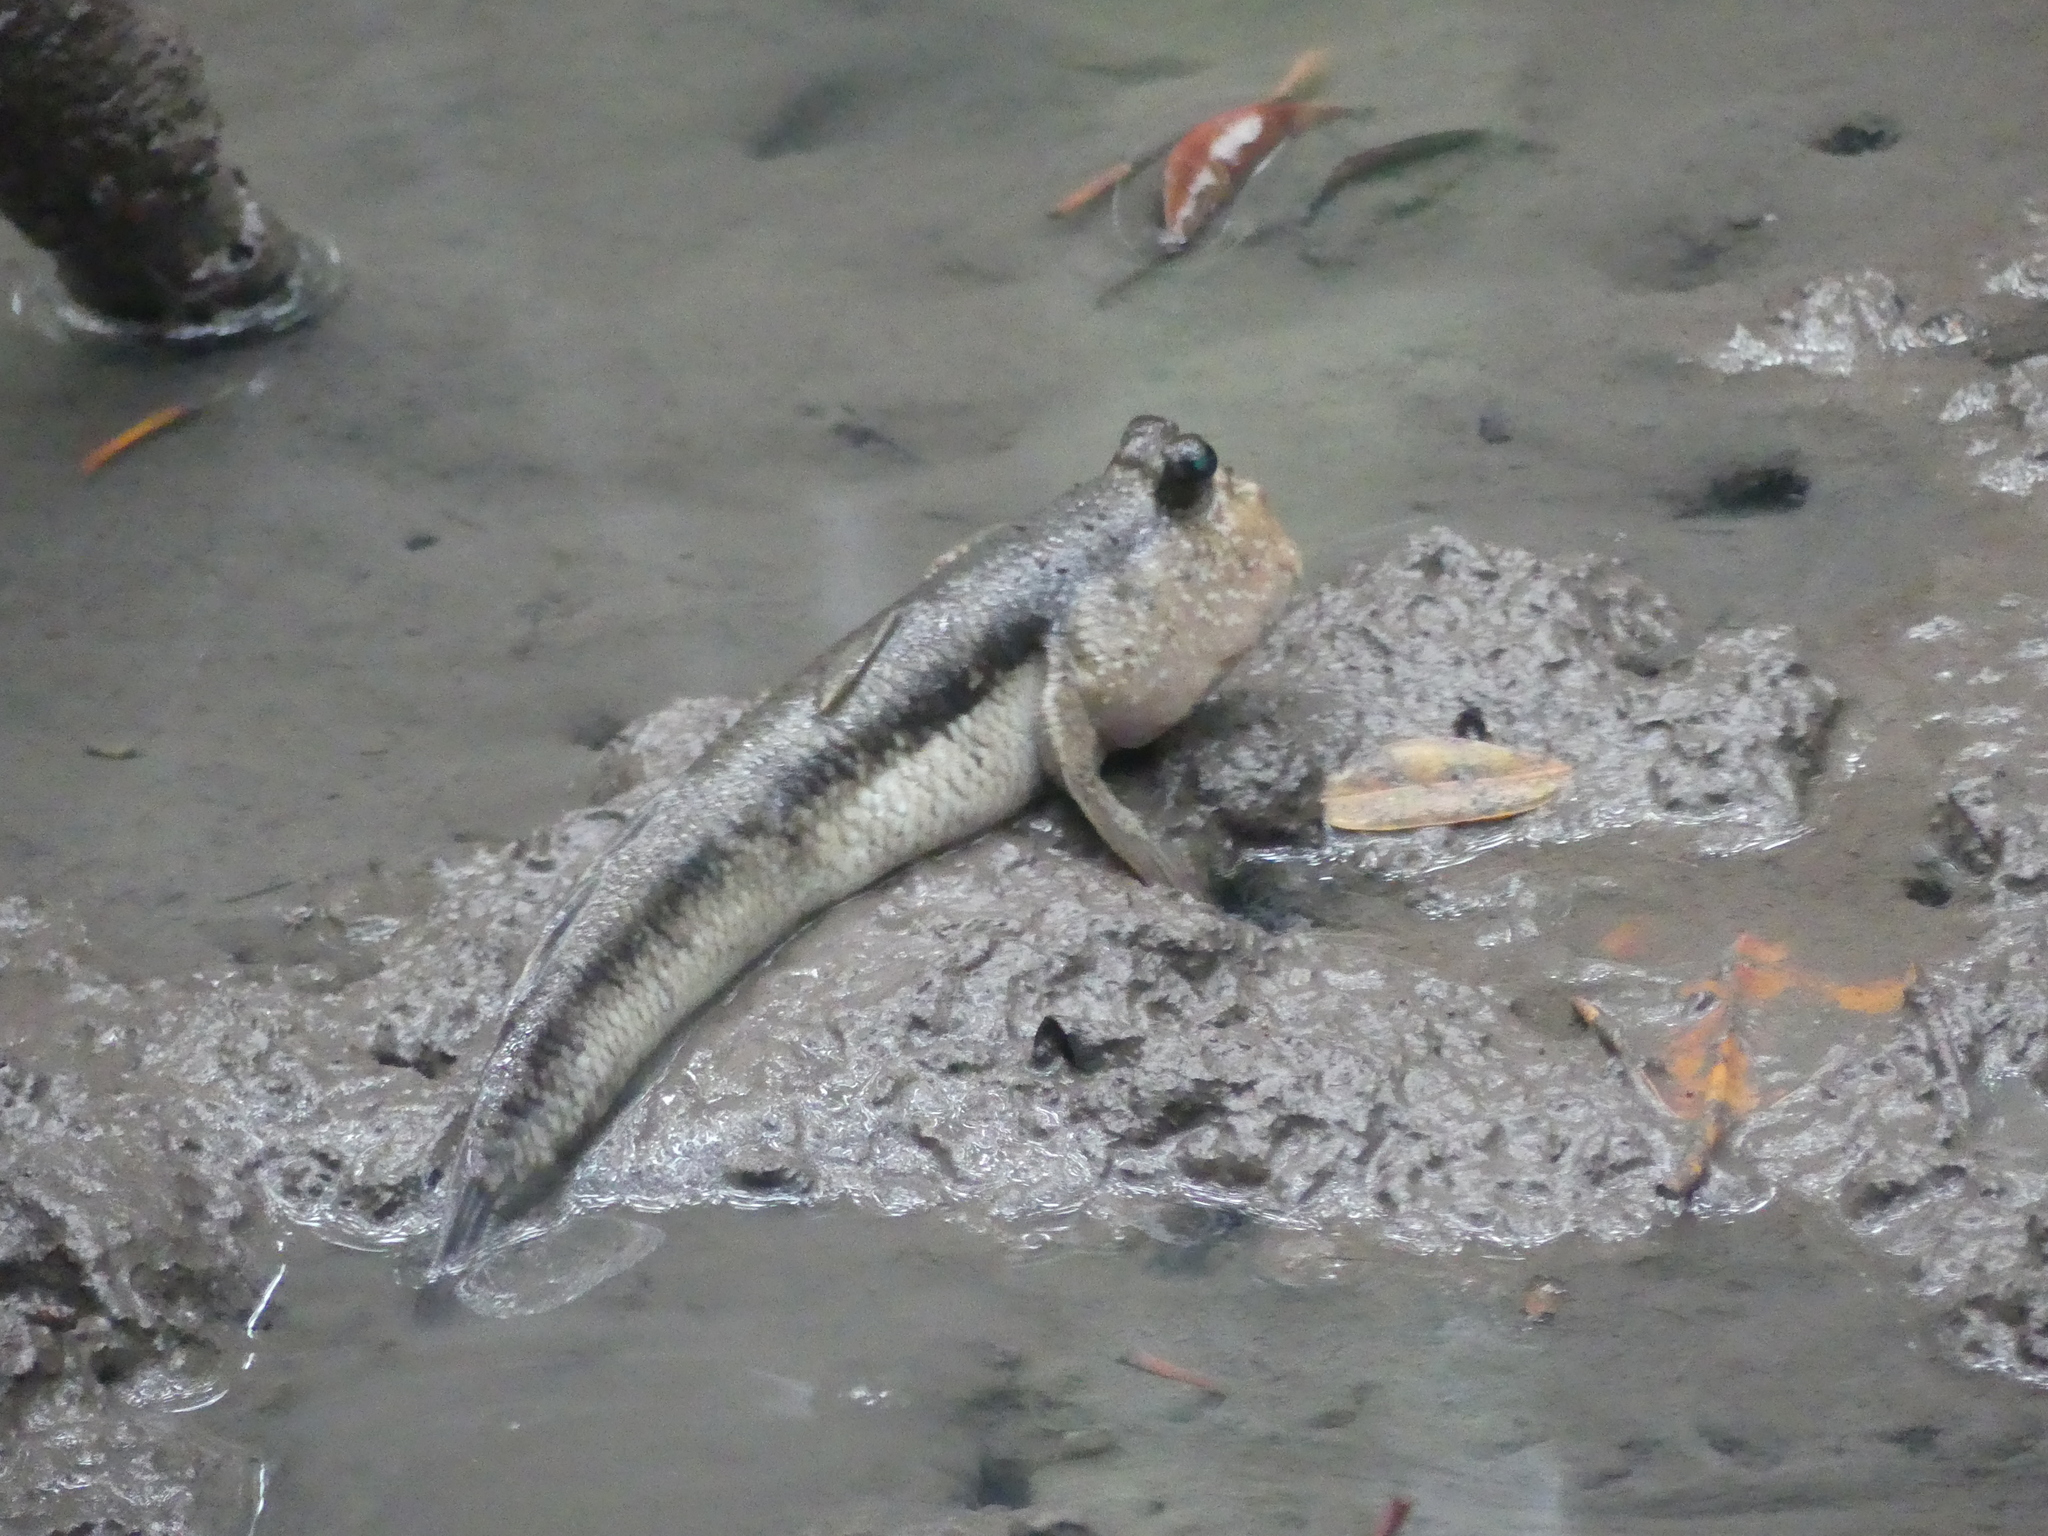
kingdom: Animalia
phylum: Chordata
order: Perciformes
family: Gobiidae
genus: Periophthalmodon
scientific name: Periophthalmodon freycineti
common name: Giant mudskipper
